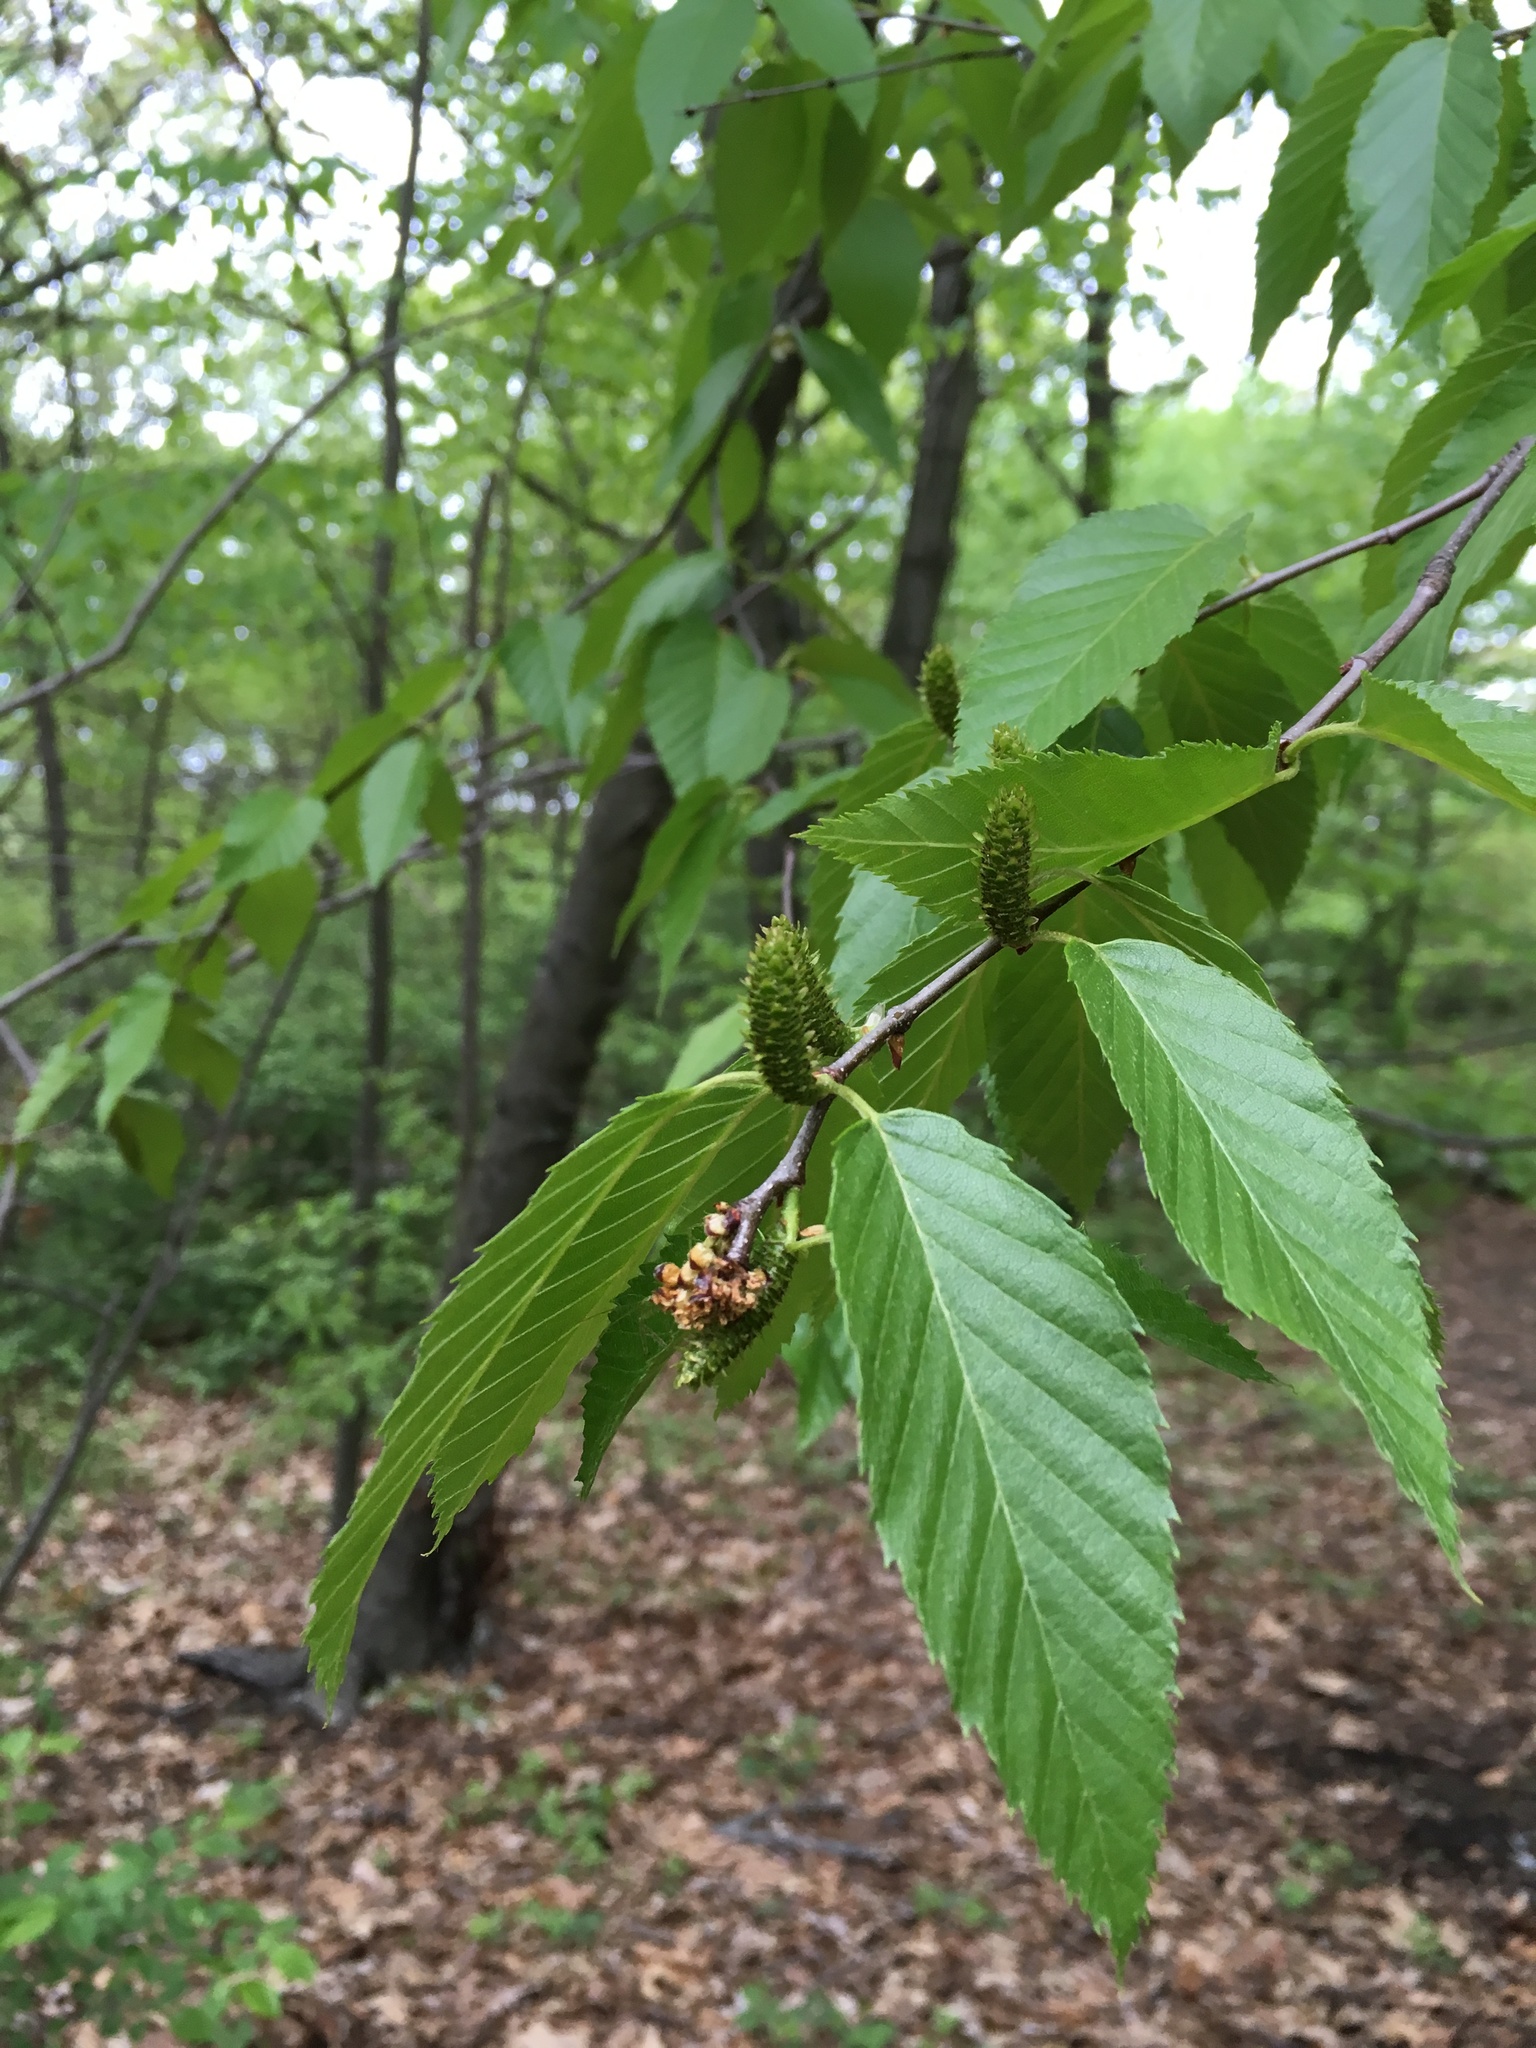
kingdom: Plantae
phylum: Tracheophyta
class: Magnoliopsida
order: Fagales
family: Betulaceae
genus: Betula
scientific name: Betula lenta
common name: Black birch
